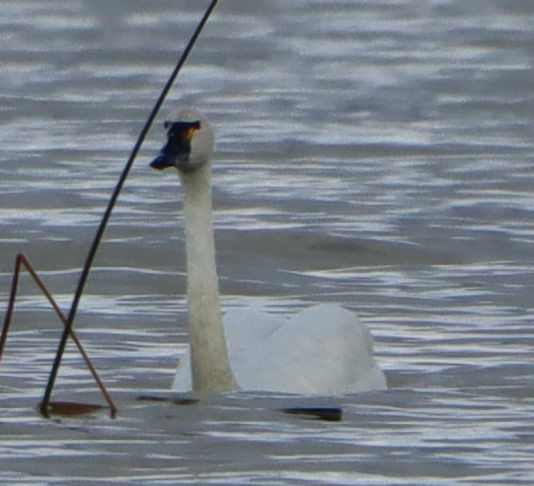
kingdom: Animalia
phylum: Chordata
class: Aves
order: Anseriformes
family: Anatidae
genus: Cygnus
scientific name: Cygnus columbianus
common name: Tundra swan
